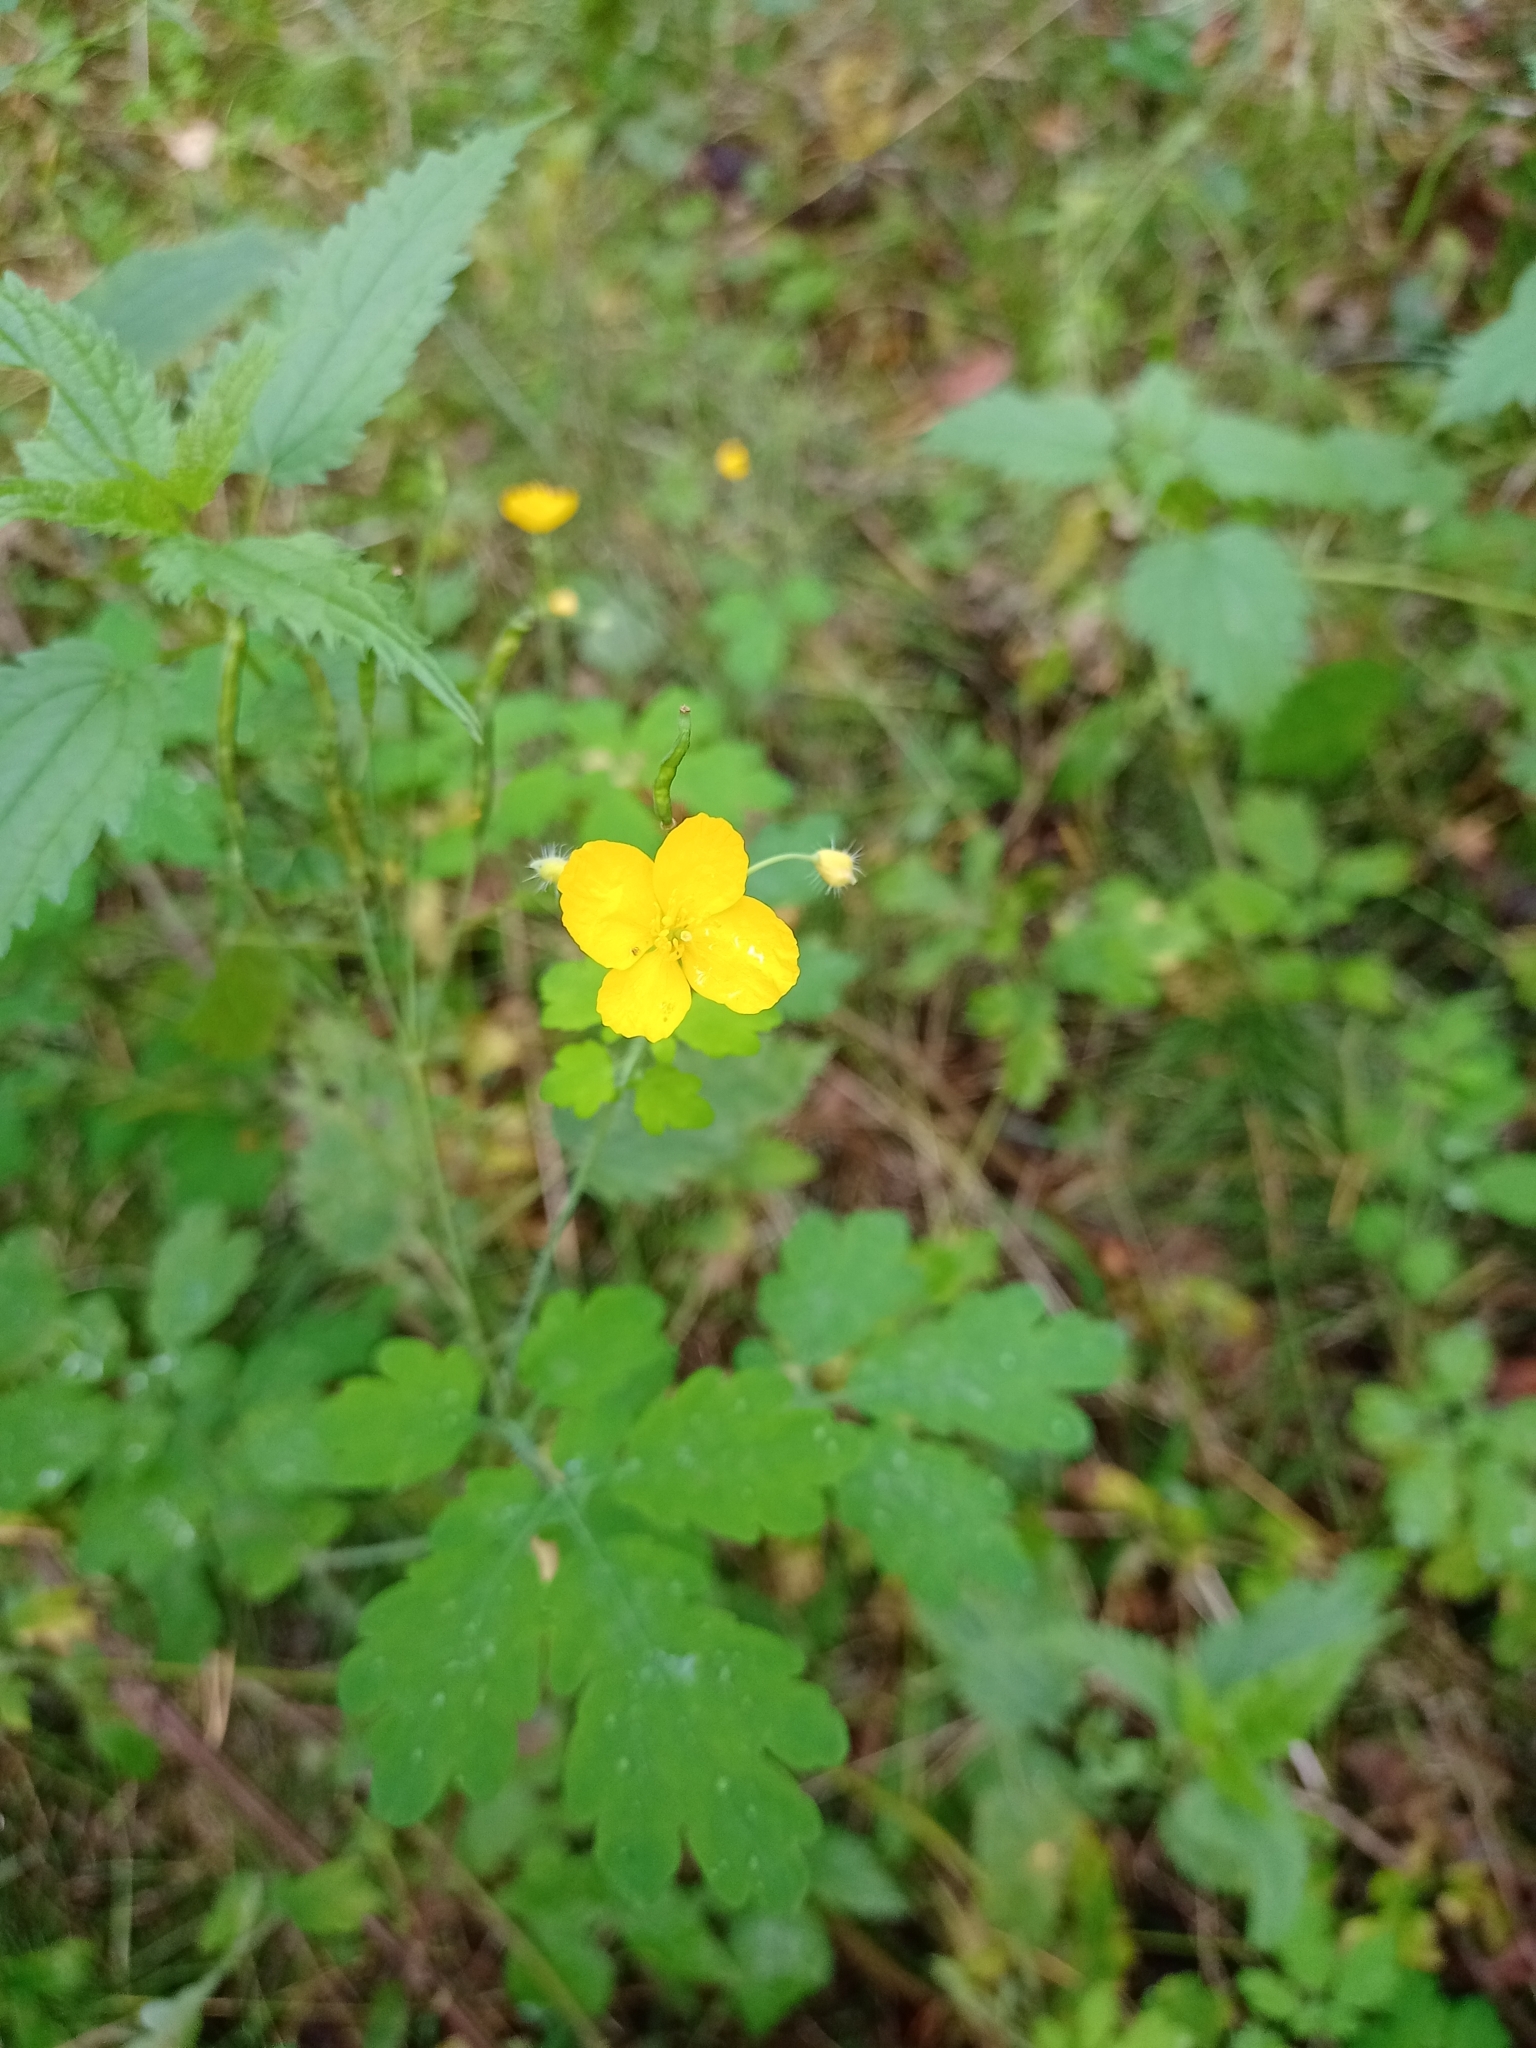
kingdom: Plantae
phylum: Tracheophyta
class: Magnoliopsida
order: Ranunculales
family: Papaveraceae
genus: Chelidonium
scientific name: Chelidonium majus
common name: Greater celandine
